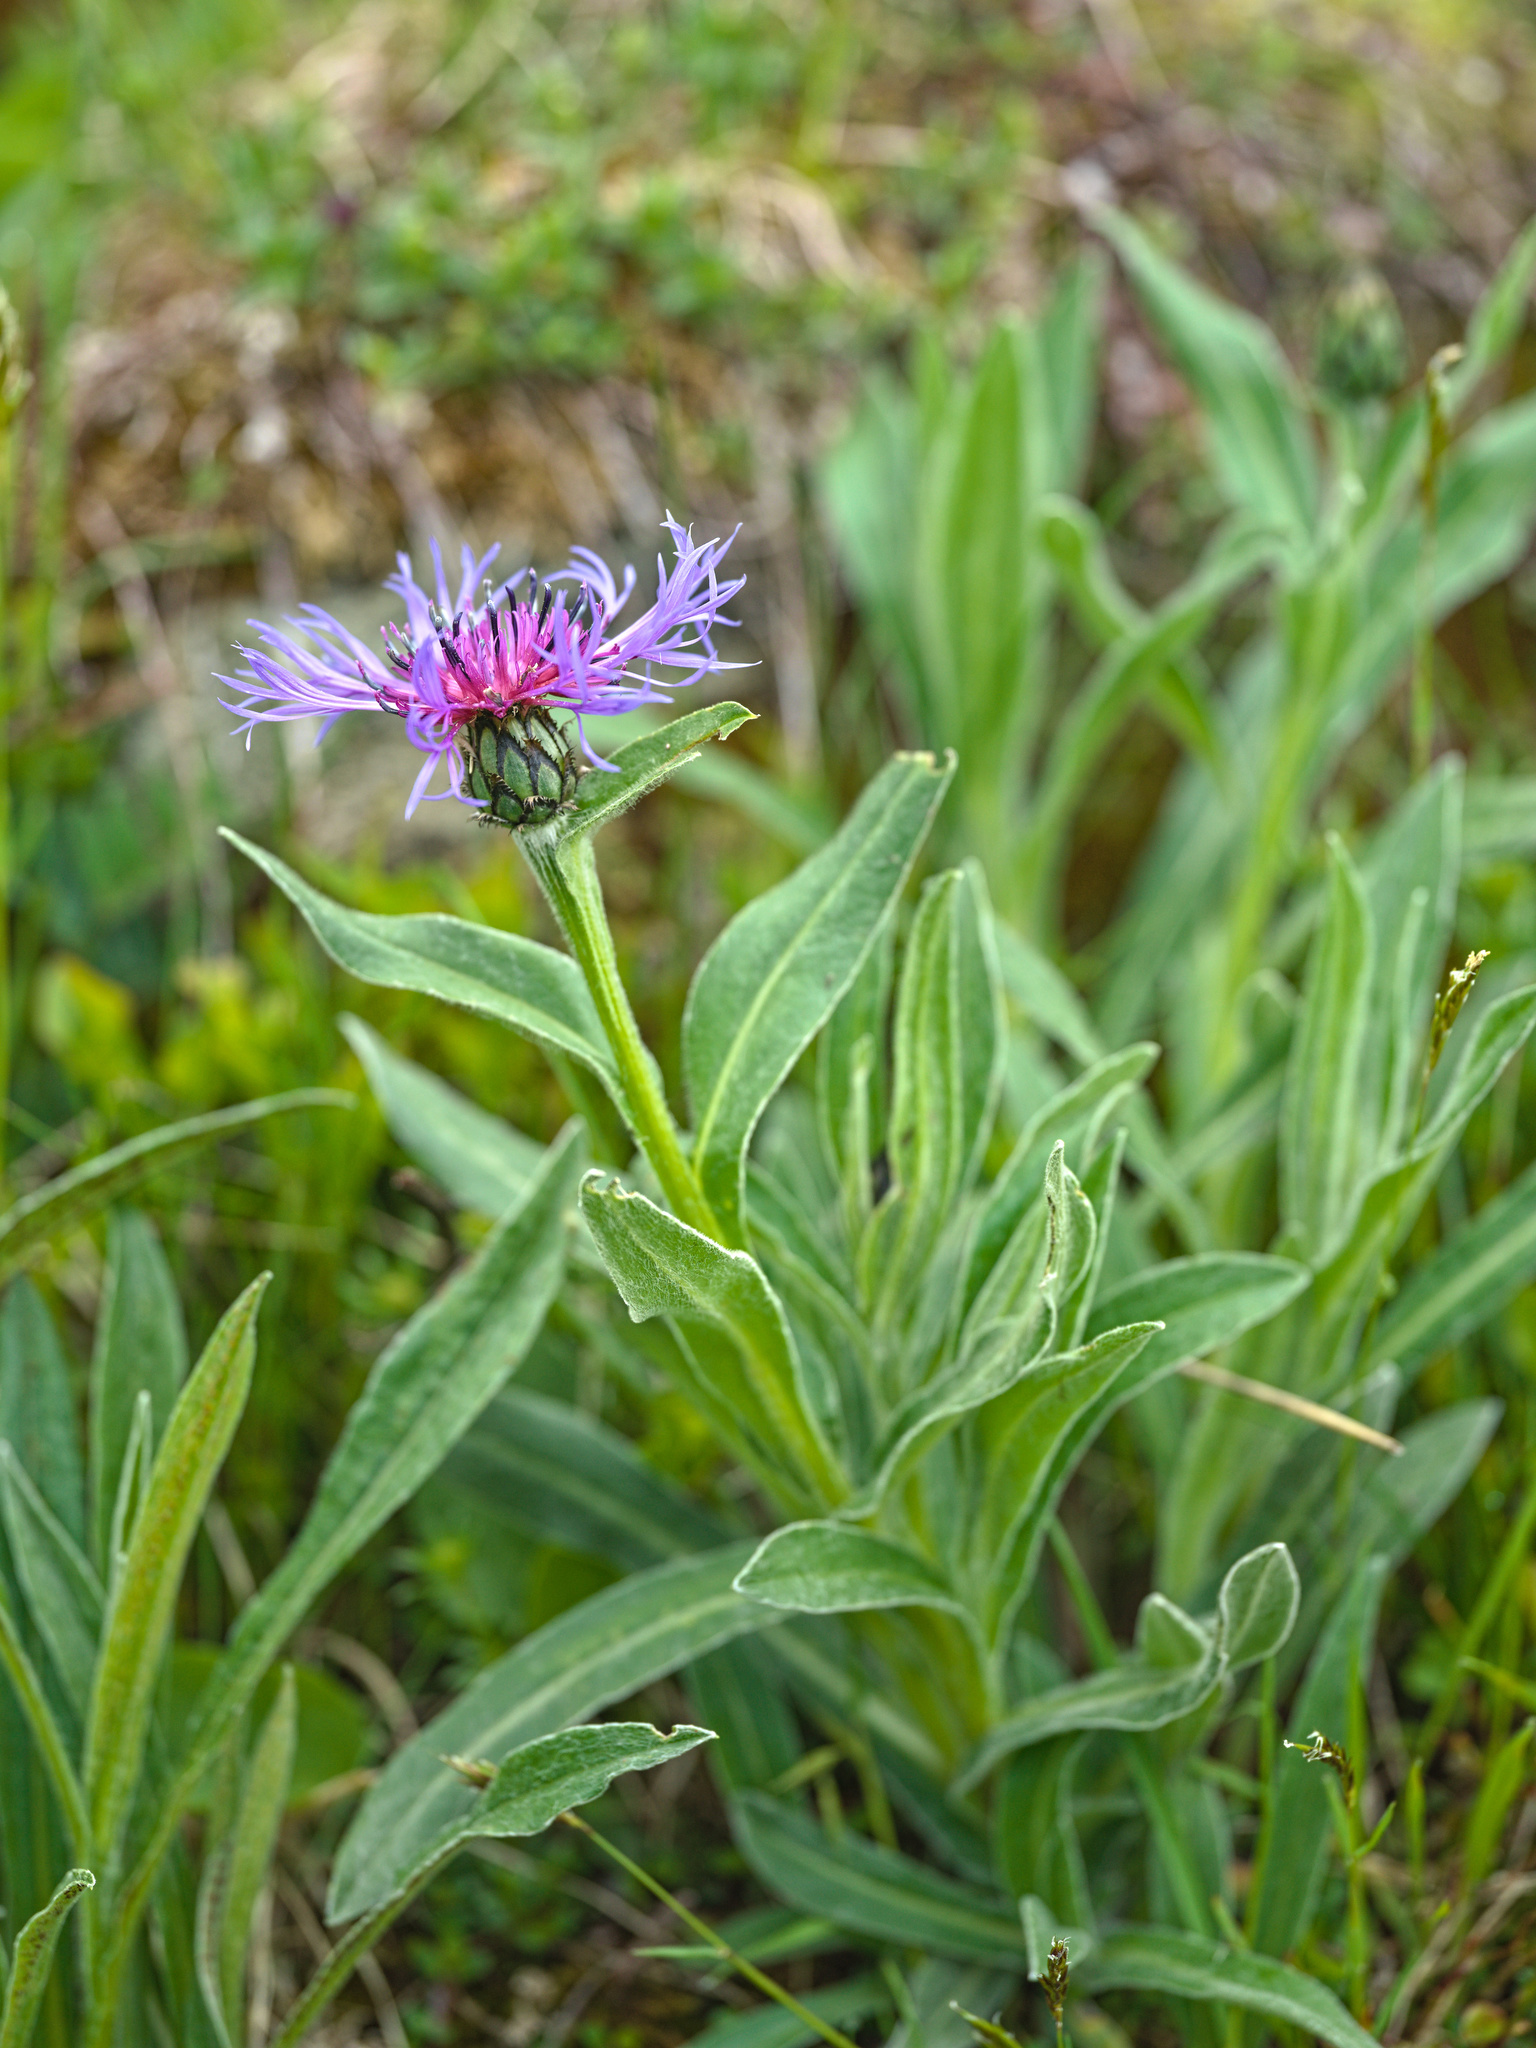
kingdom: Plantae
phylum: Tracheophyta
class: Magnoliopsida
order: Asterales
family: Asteraceae
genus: Centaurea
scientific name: Centaurea montana
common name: Perennial cornflower
